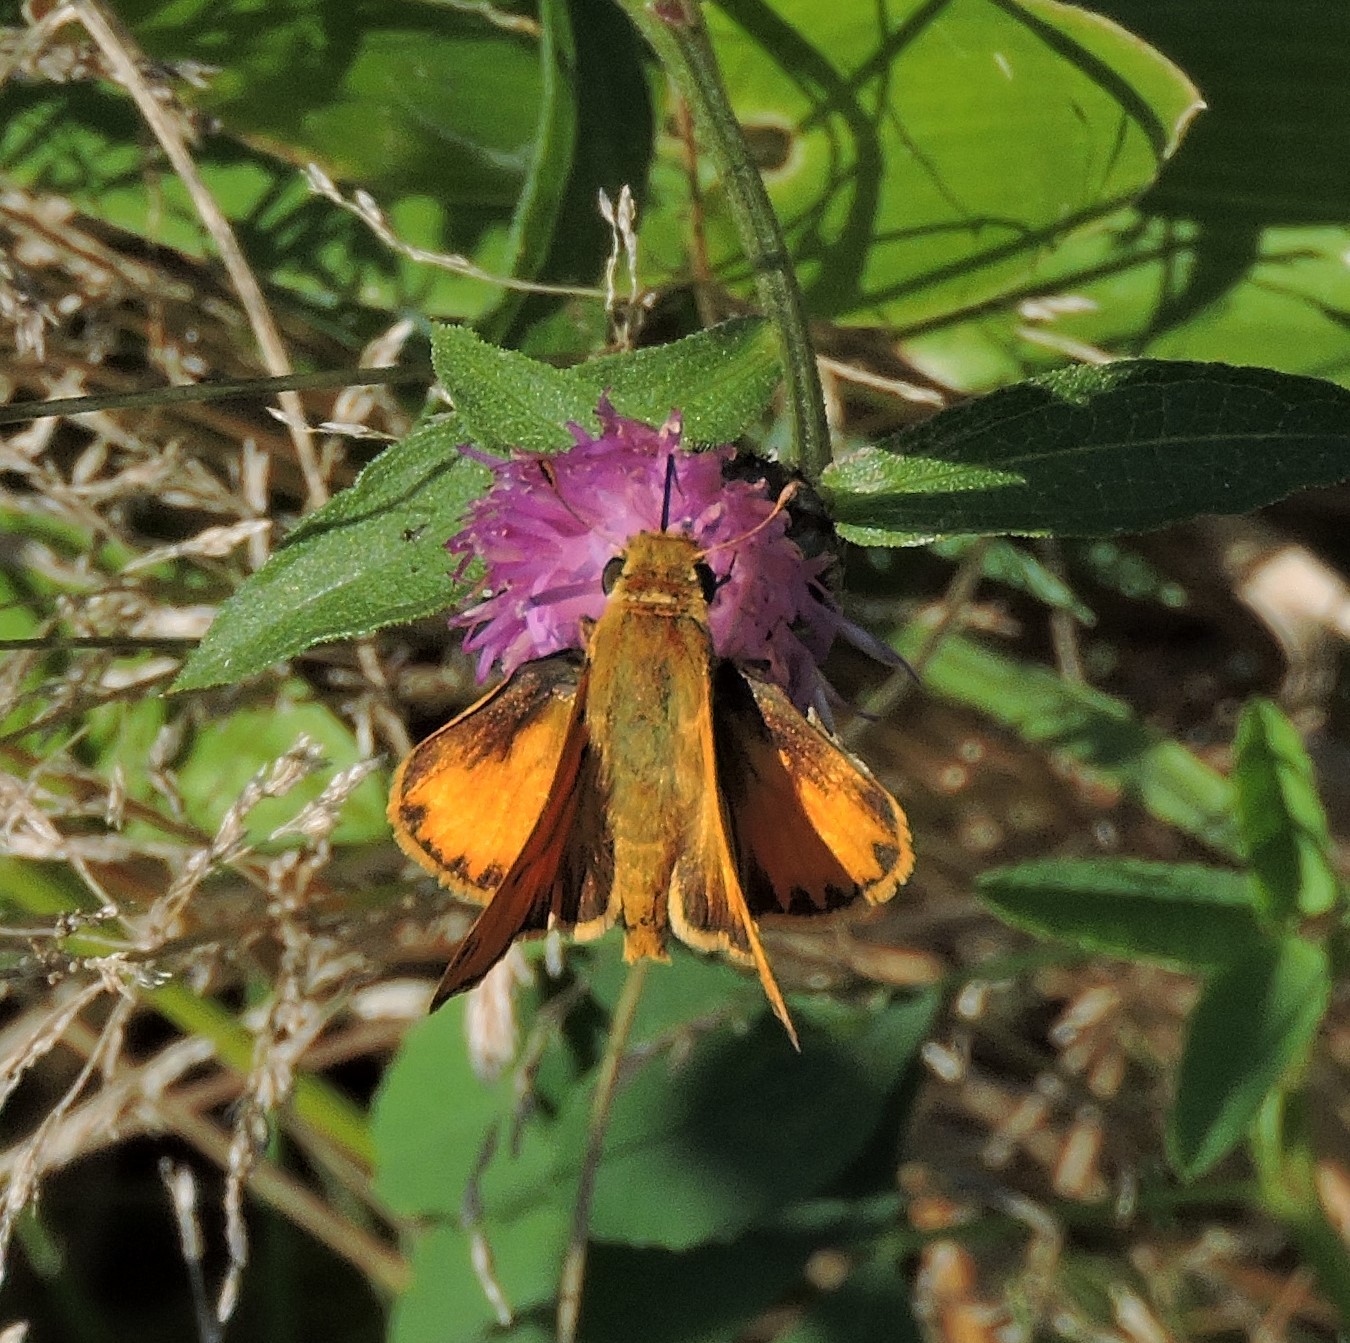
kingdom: Animalia
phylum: Arthropoda
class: Insecta
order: Lepidoptera
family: Hesperiidae
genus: Hylephila
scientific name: Hylephila phyleus
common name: Fiery skipper
